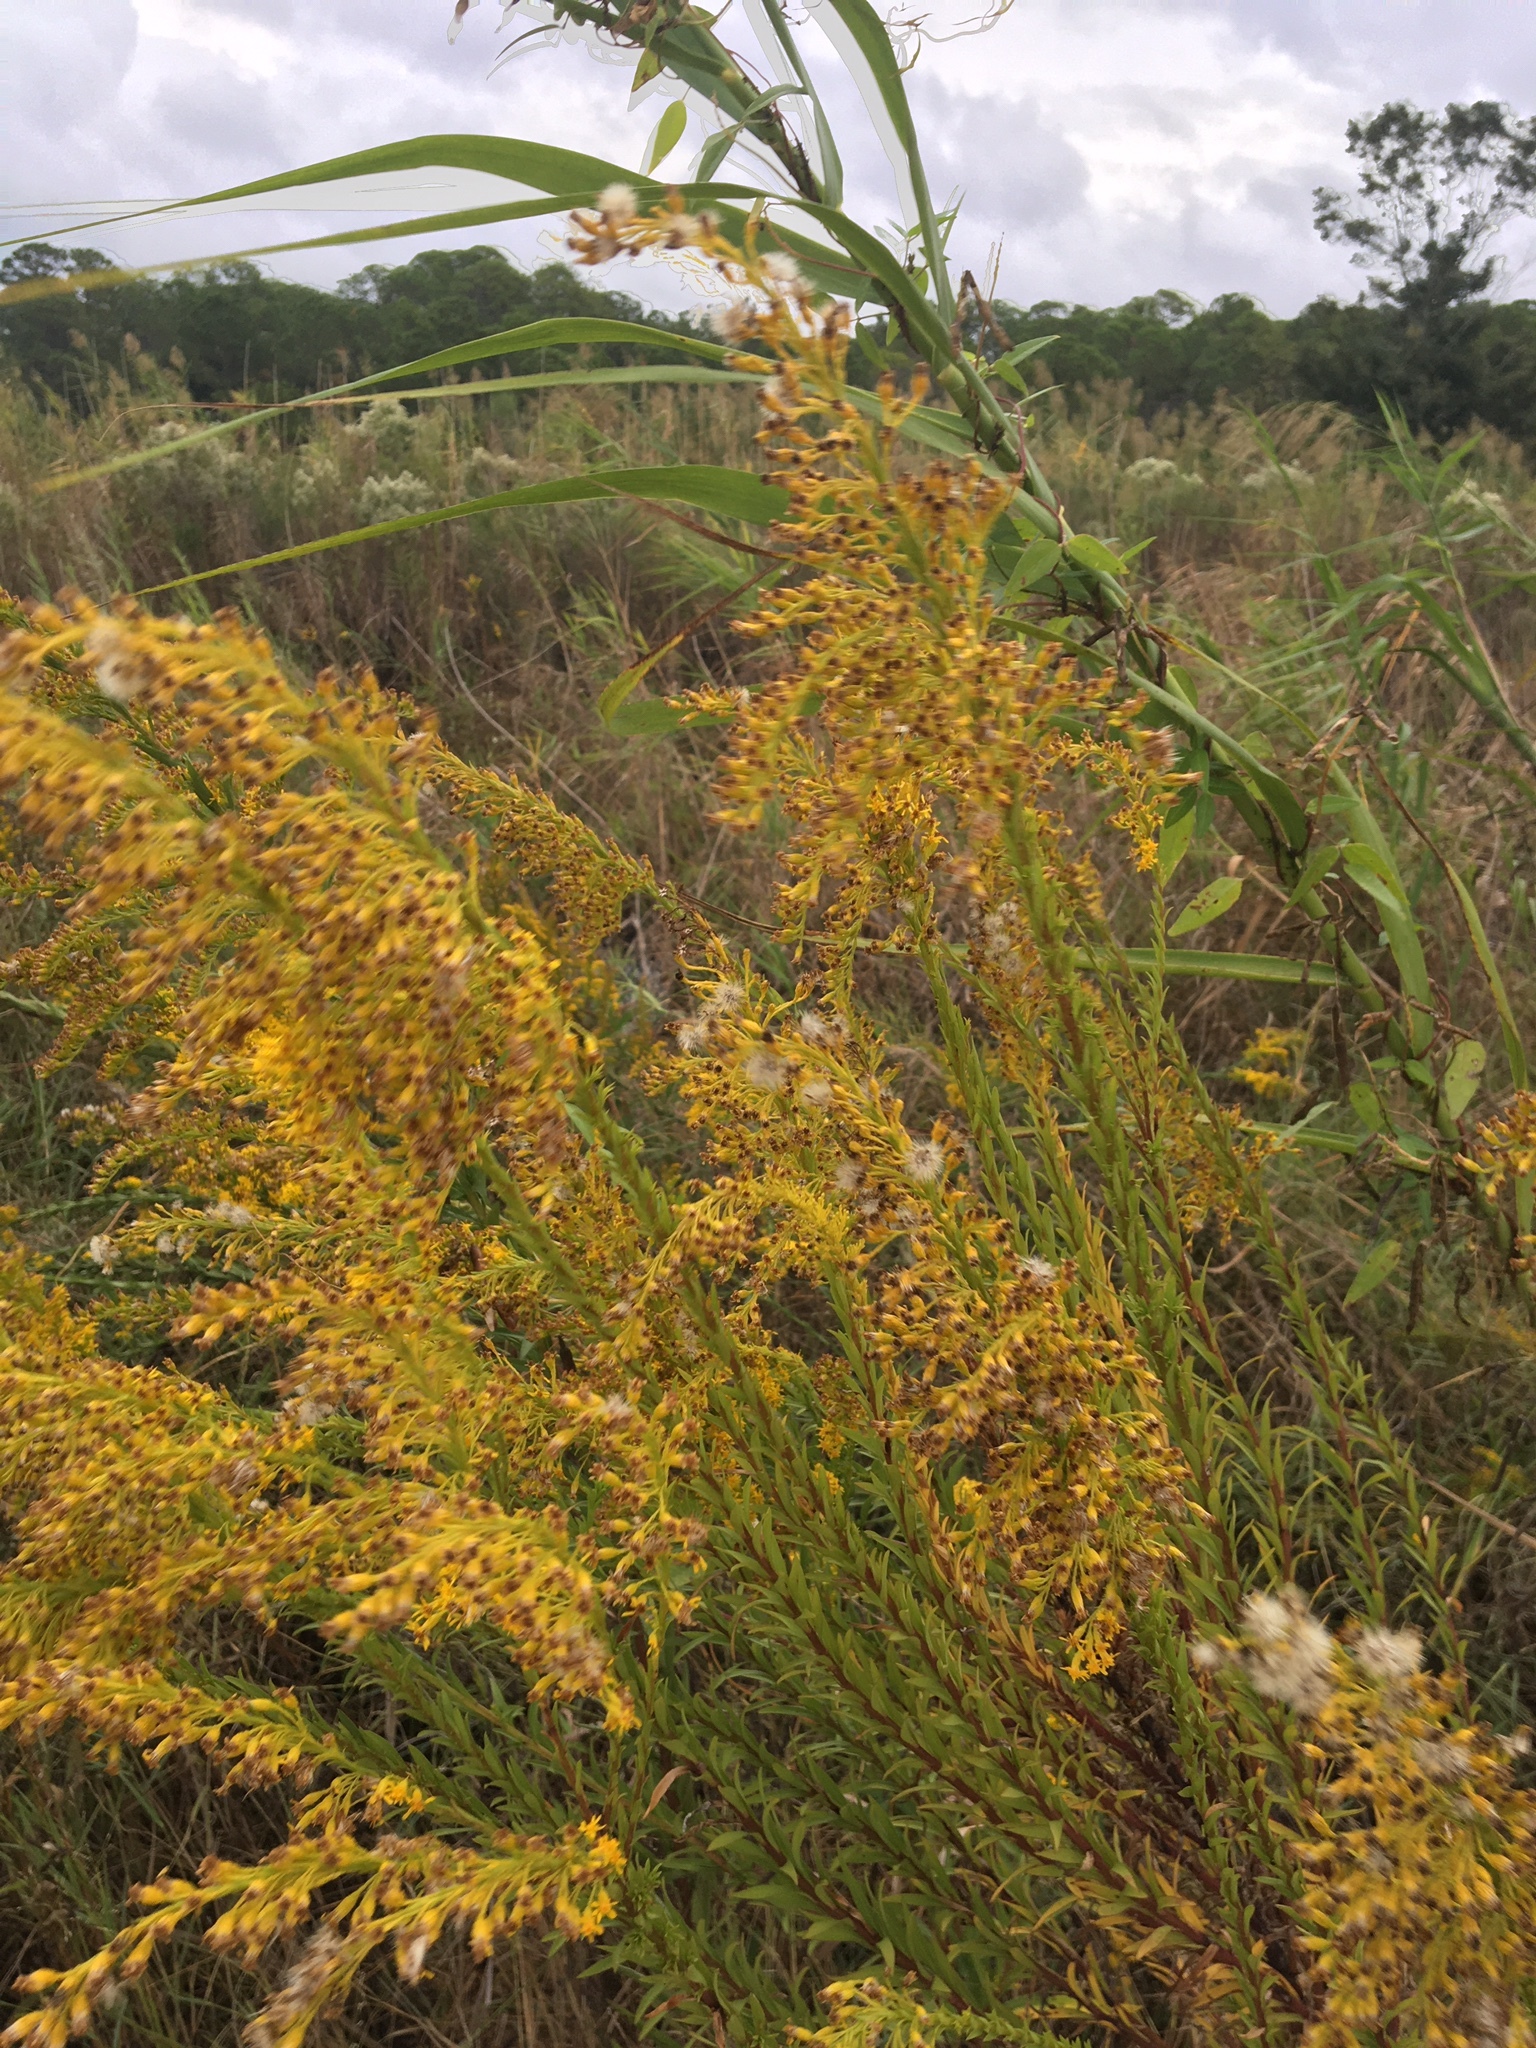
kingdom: Plantae
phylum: Tracheophyta
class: Magnoliopsida
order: Asterales
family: Asteraceae
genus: Solidago
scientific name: Solidago mexicana
